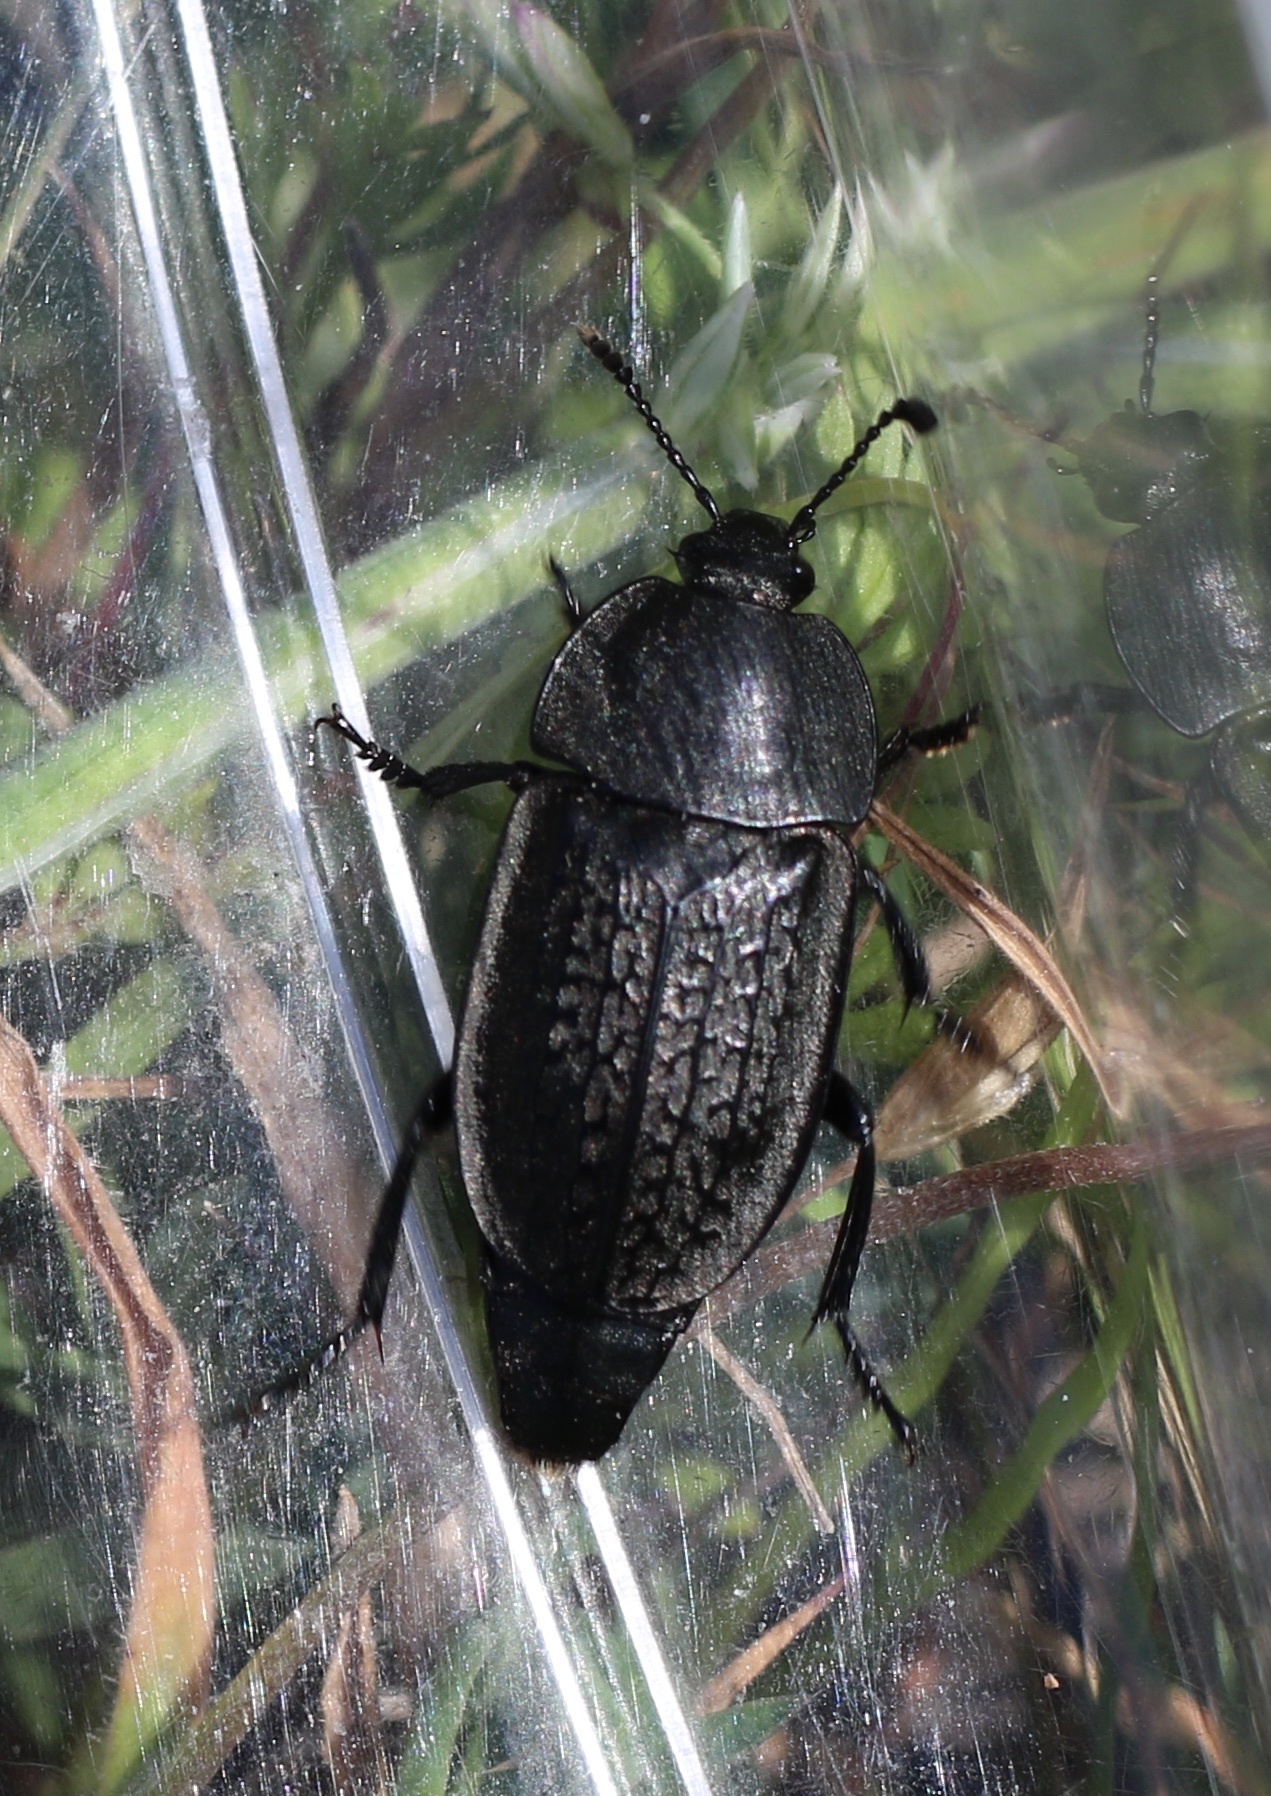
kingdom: Animalia
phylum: Arthropoda
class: Insecta
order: Coleoptera
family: Staphylinidae
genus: Heterosilpha
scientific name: Heterosilpha ramosa
